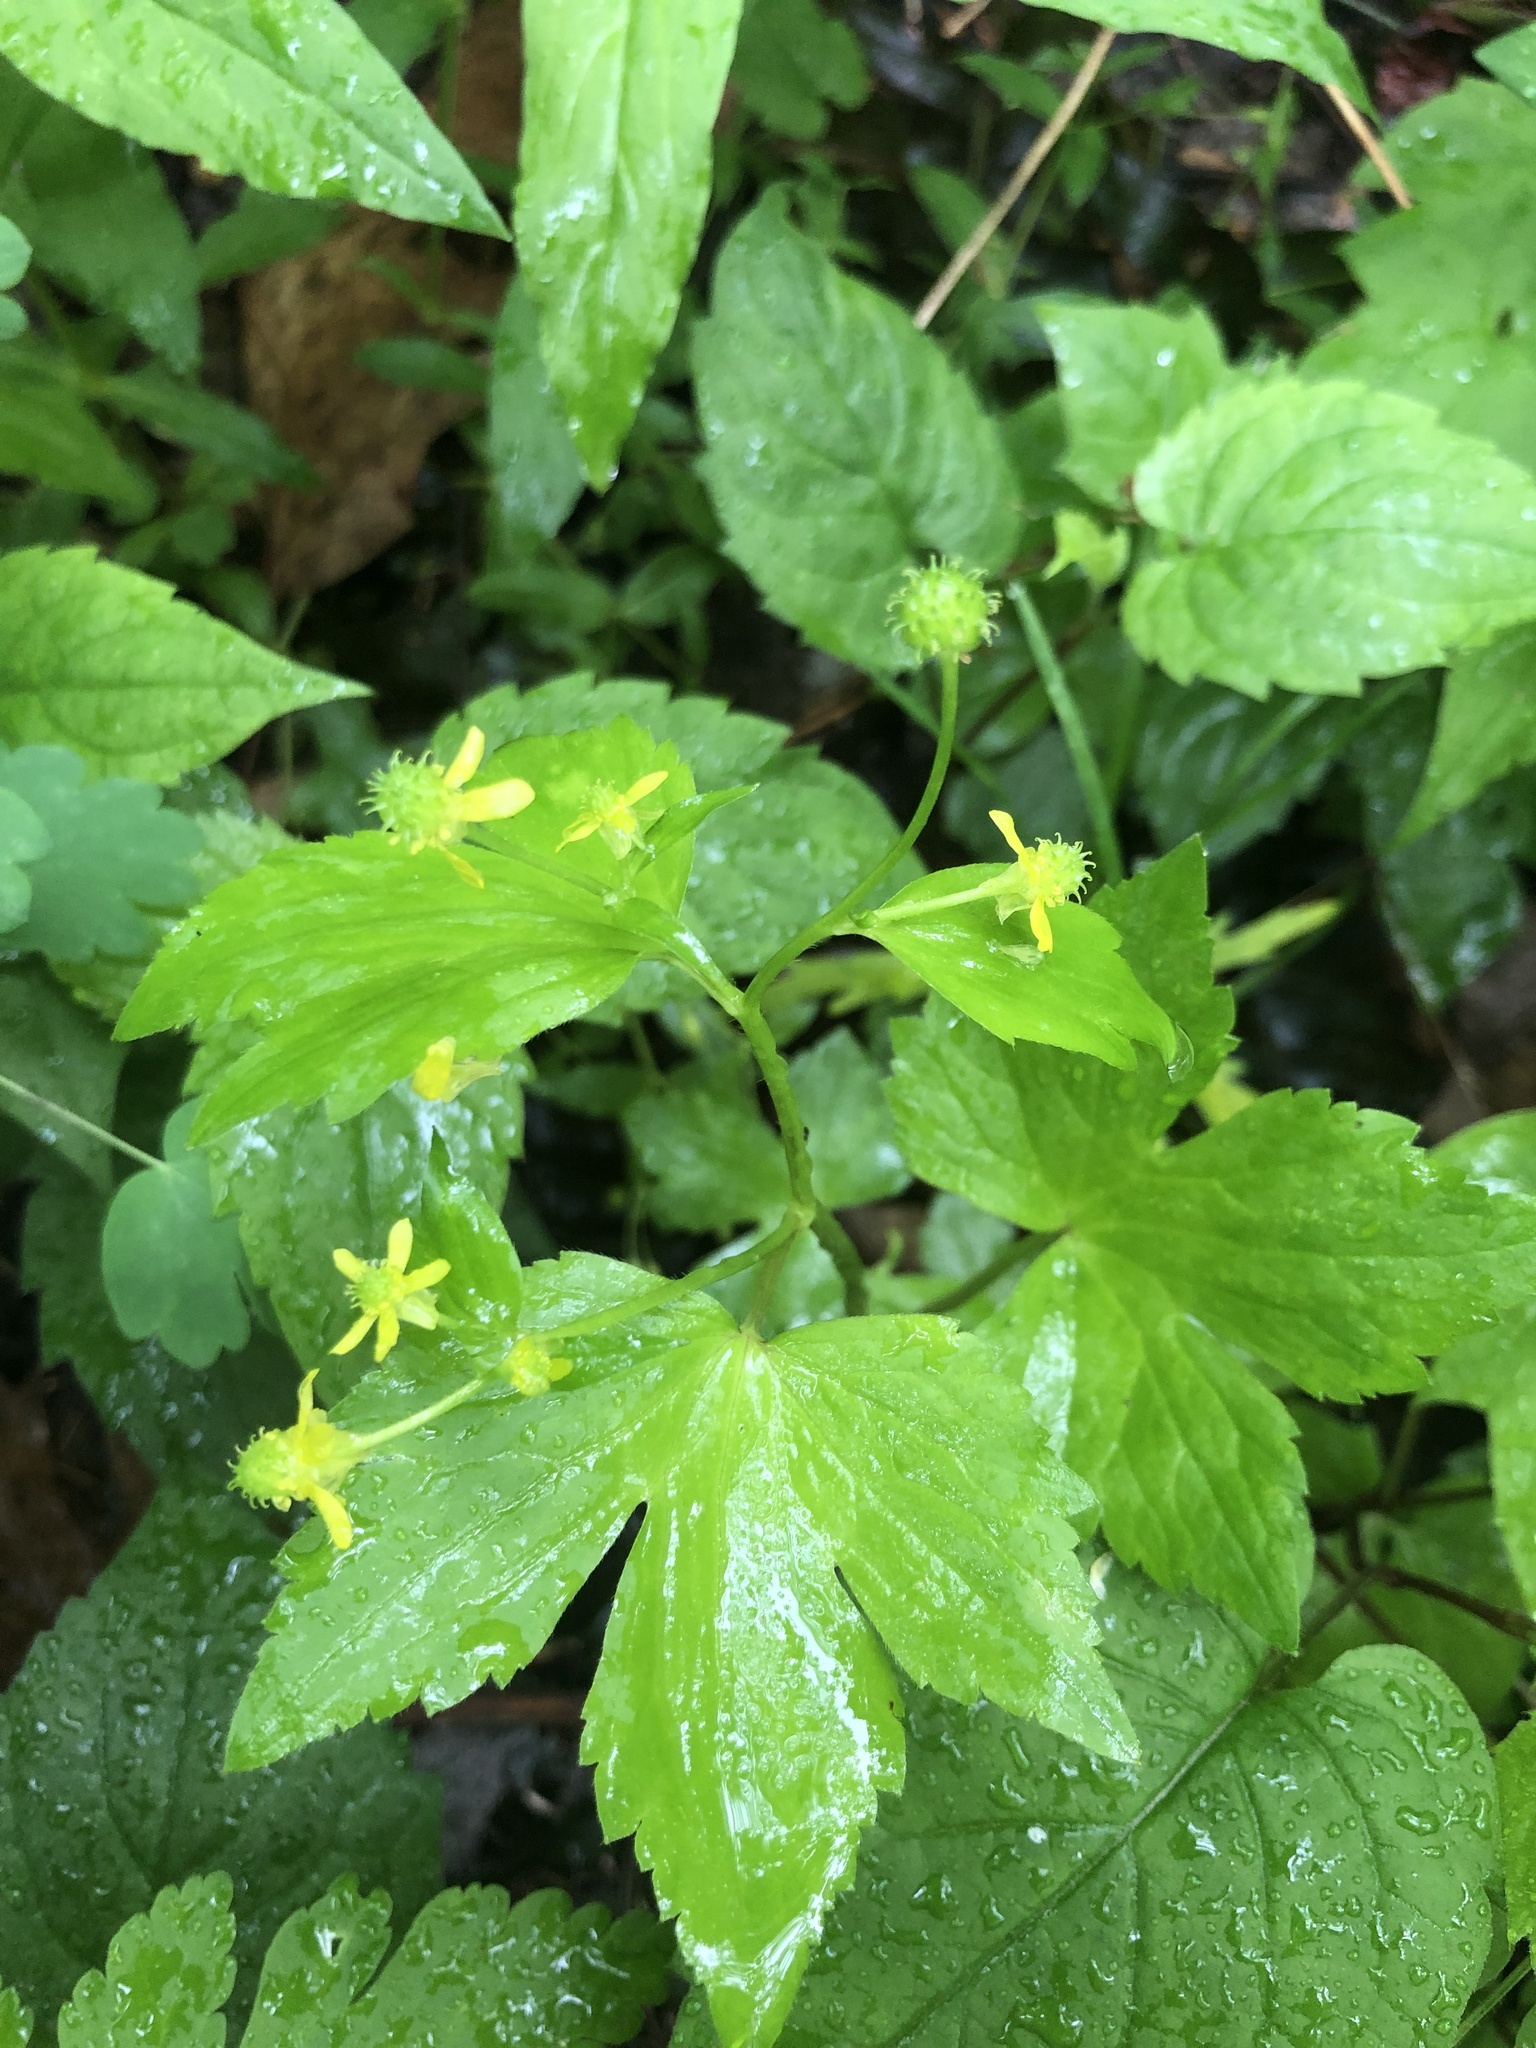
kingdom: Plantae
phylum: Tracheophyta
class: Magnoliopsida
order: Ranunculales
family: Ranunculaceae
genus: Ranunculus
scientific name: Ranunculus recurvatus
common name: Blisterwort
